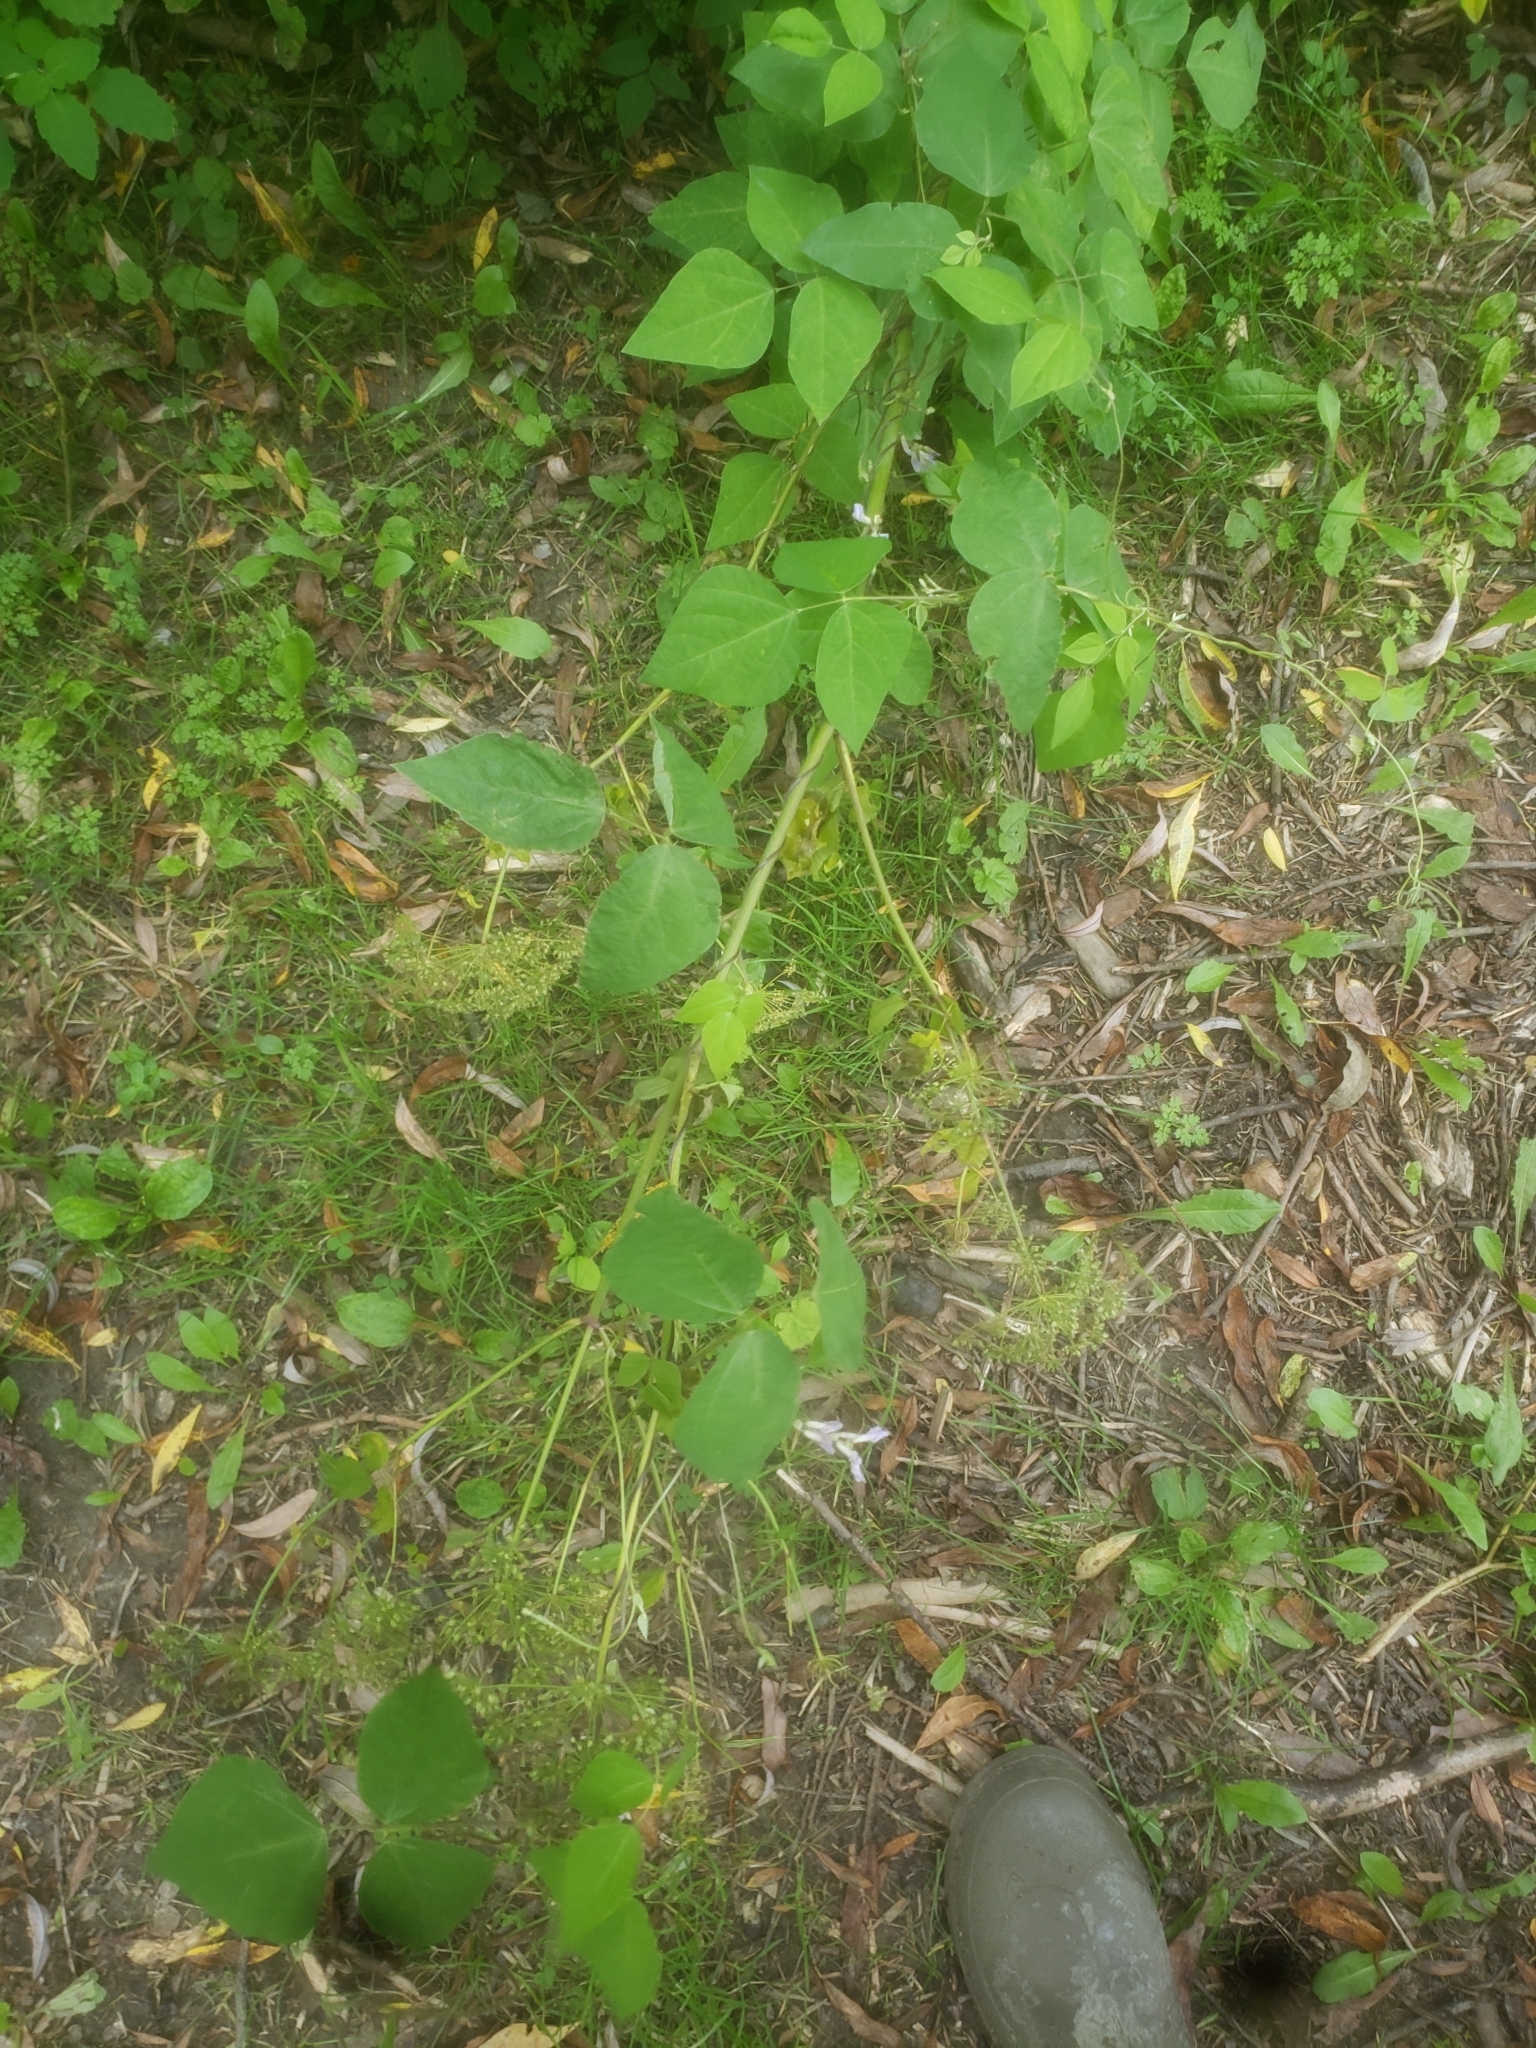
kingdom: Plantae
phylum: Tracheophyta
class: Magnoliopsida
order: Fabales
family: Fabaceae
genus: Amphicarpaea
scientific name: Amphicarpaea bracteata
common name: American hog peanut
